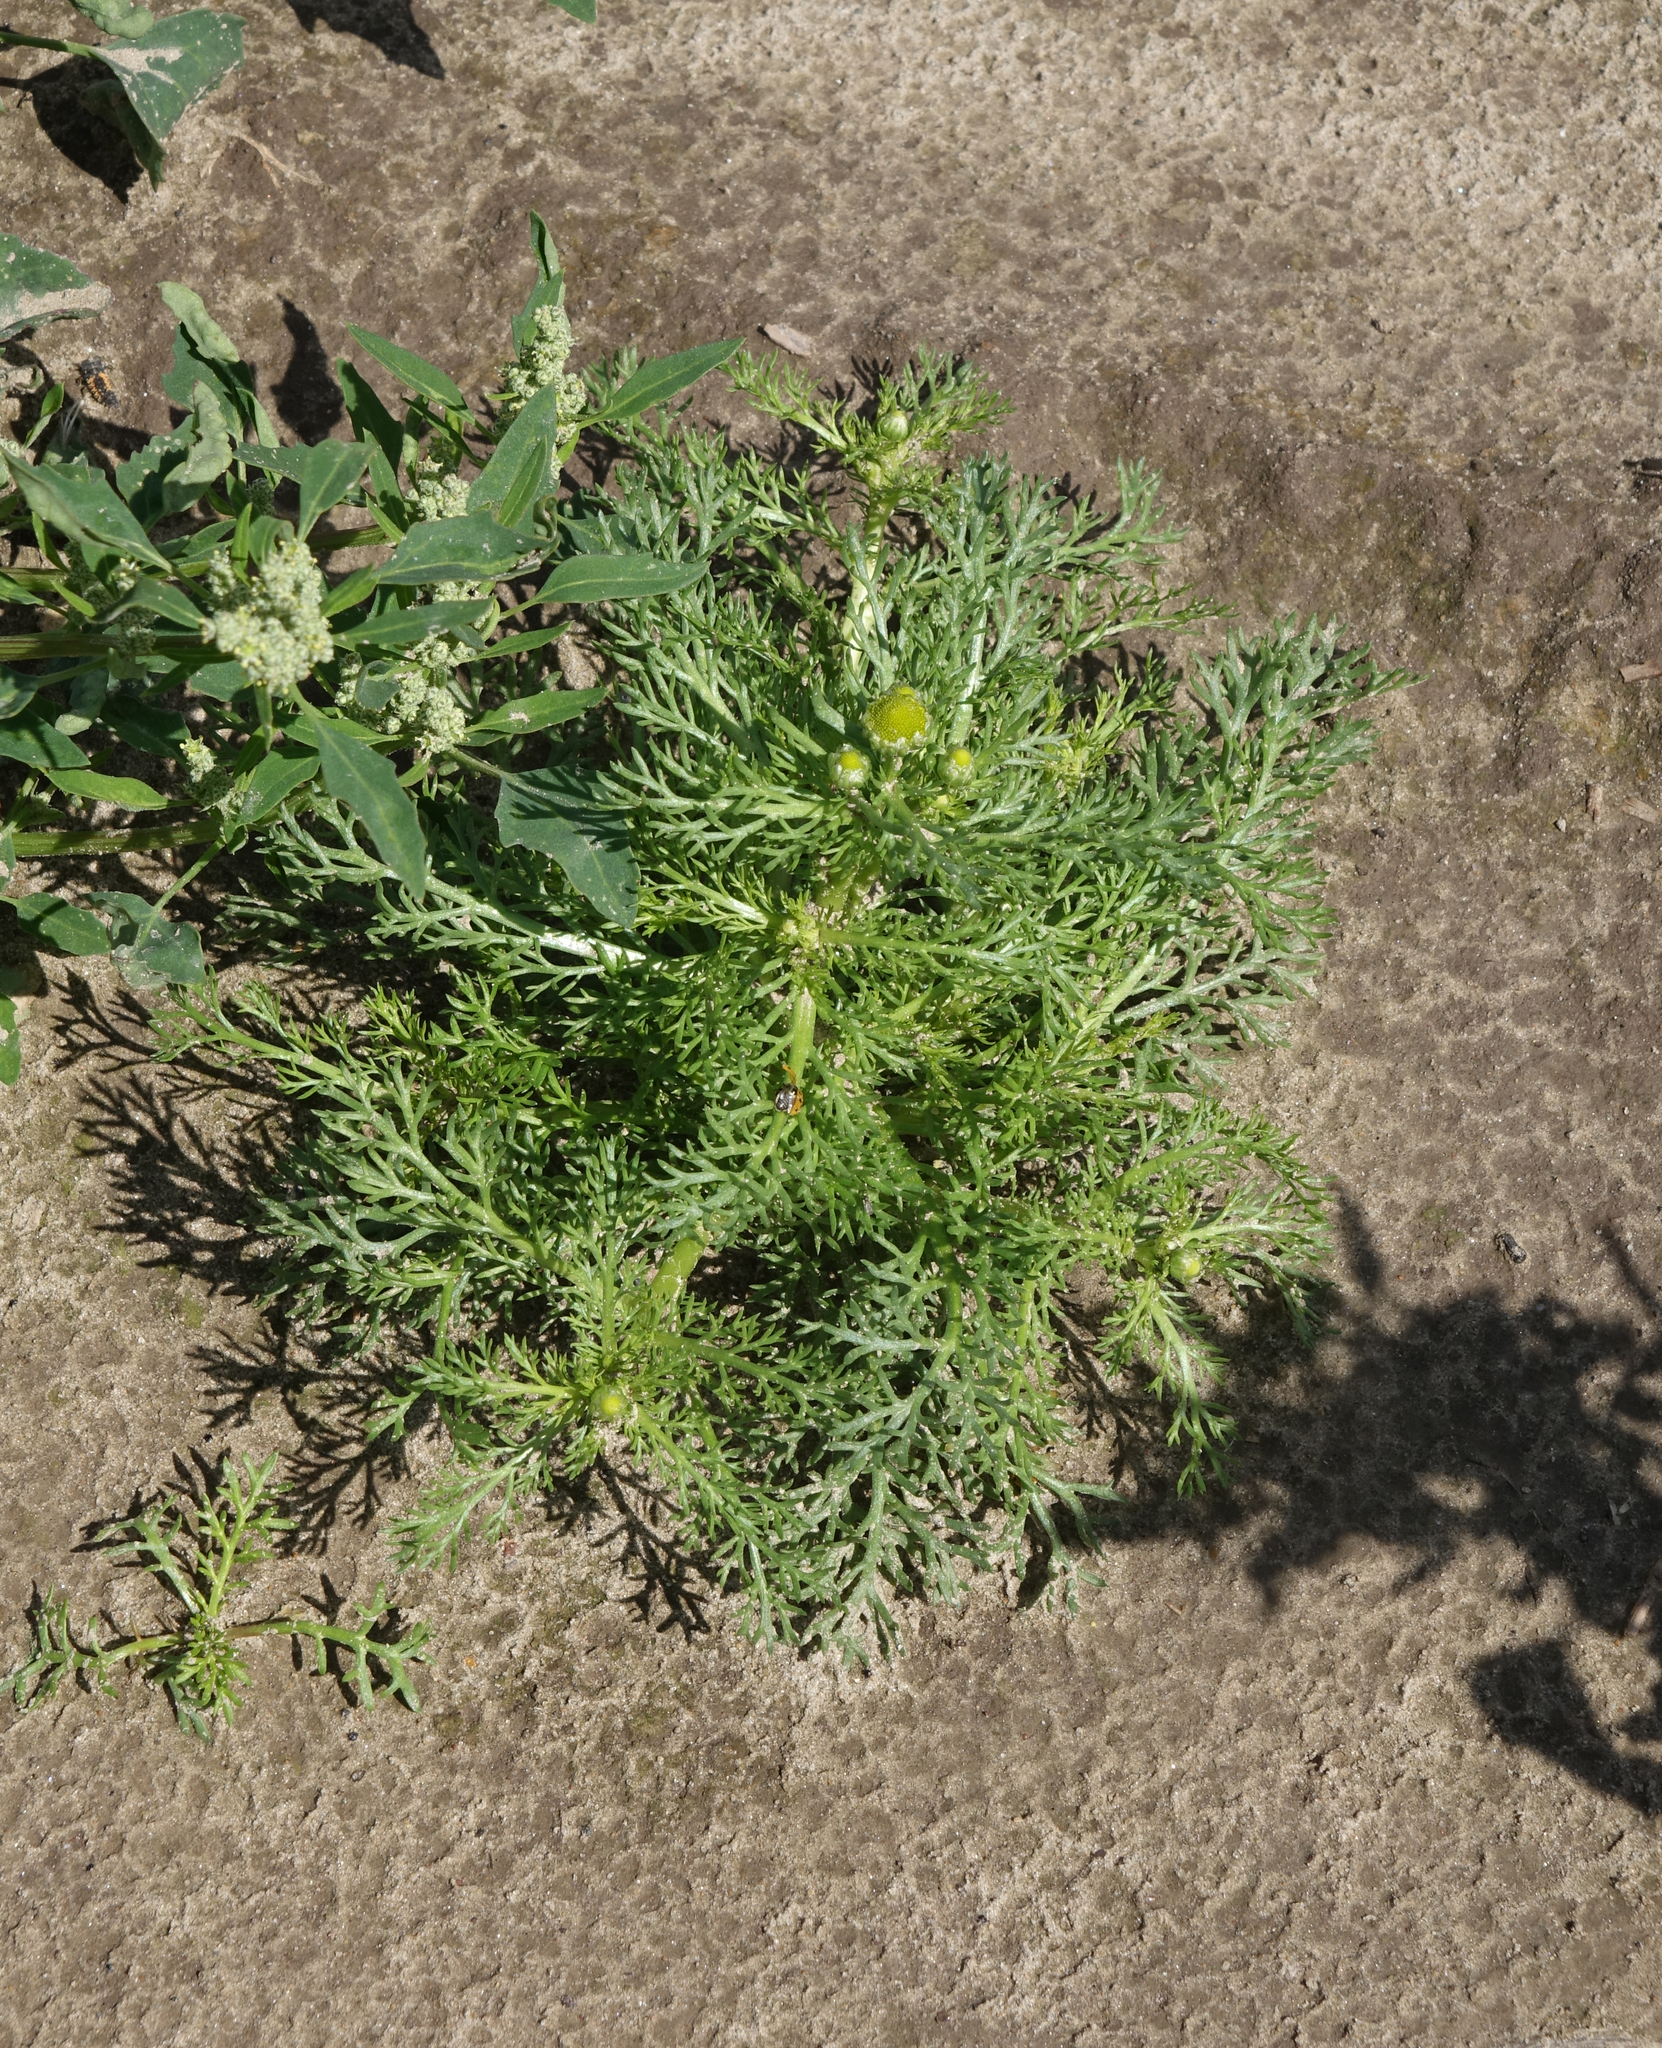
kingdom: Plantae
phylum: Tracheophyta
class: Magnoliopsida
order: Asterales
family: Asteraceae
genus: Matricaria
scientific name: Matricaria discoidea
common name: Disc mayweed
